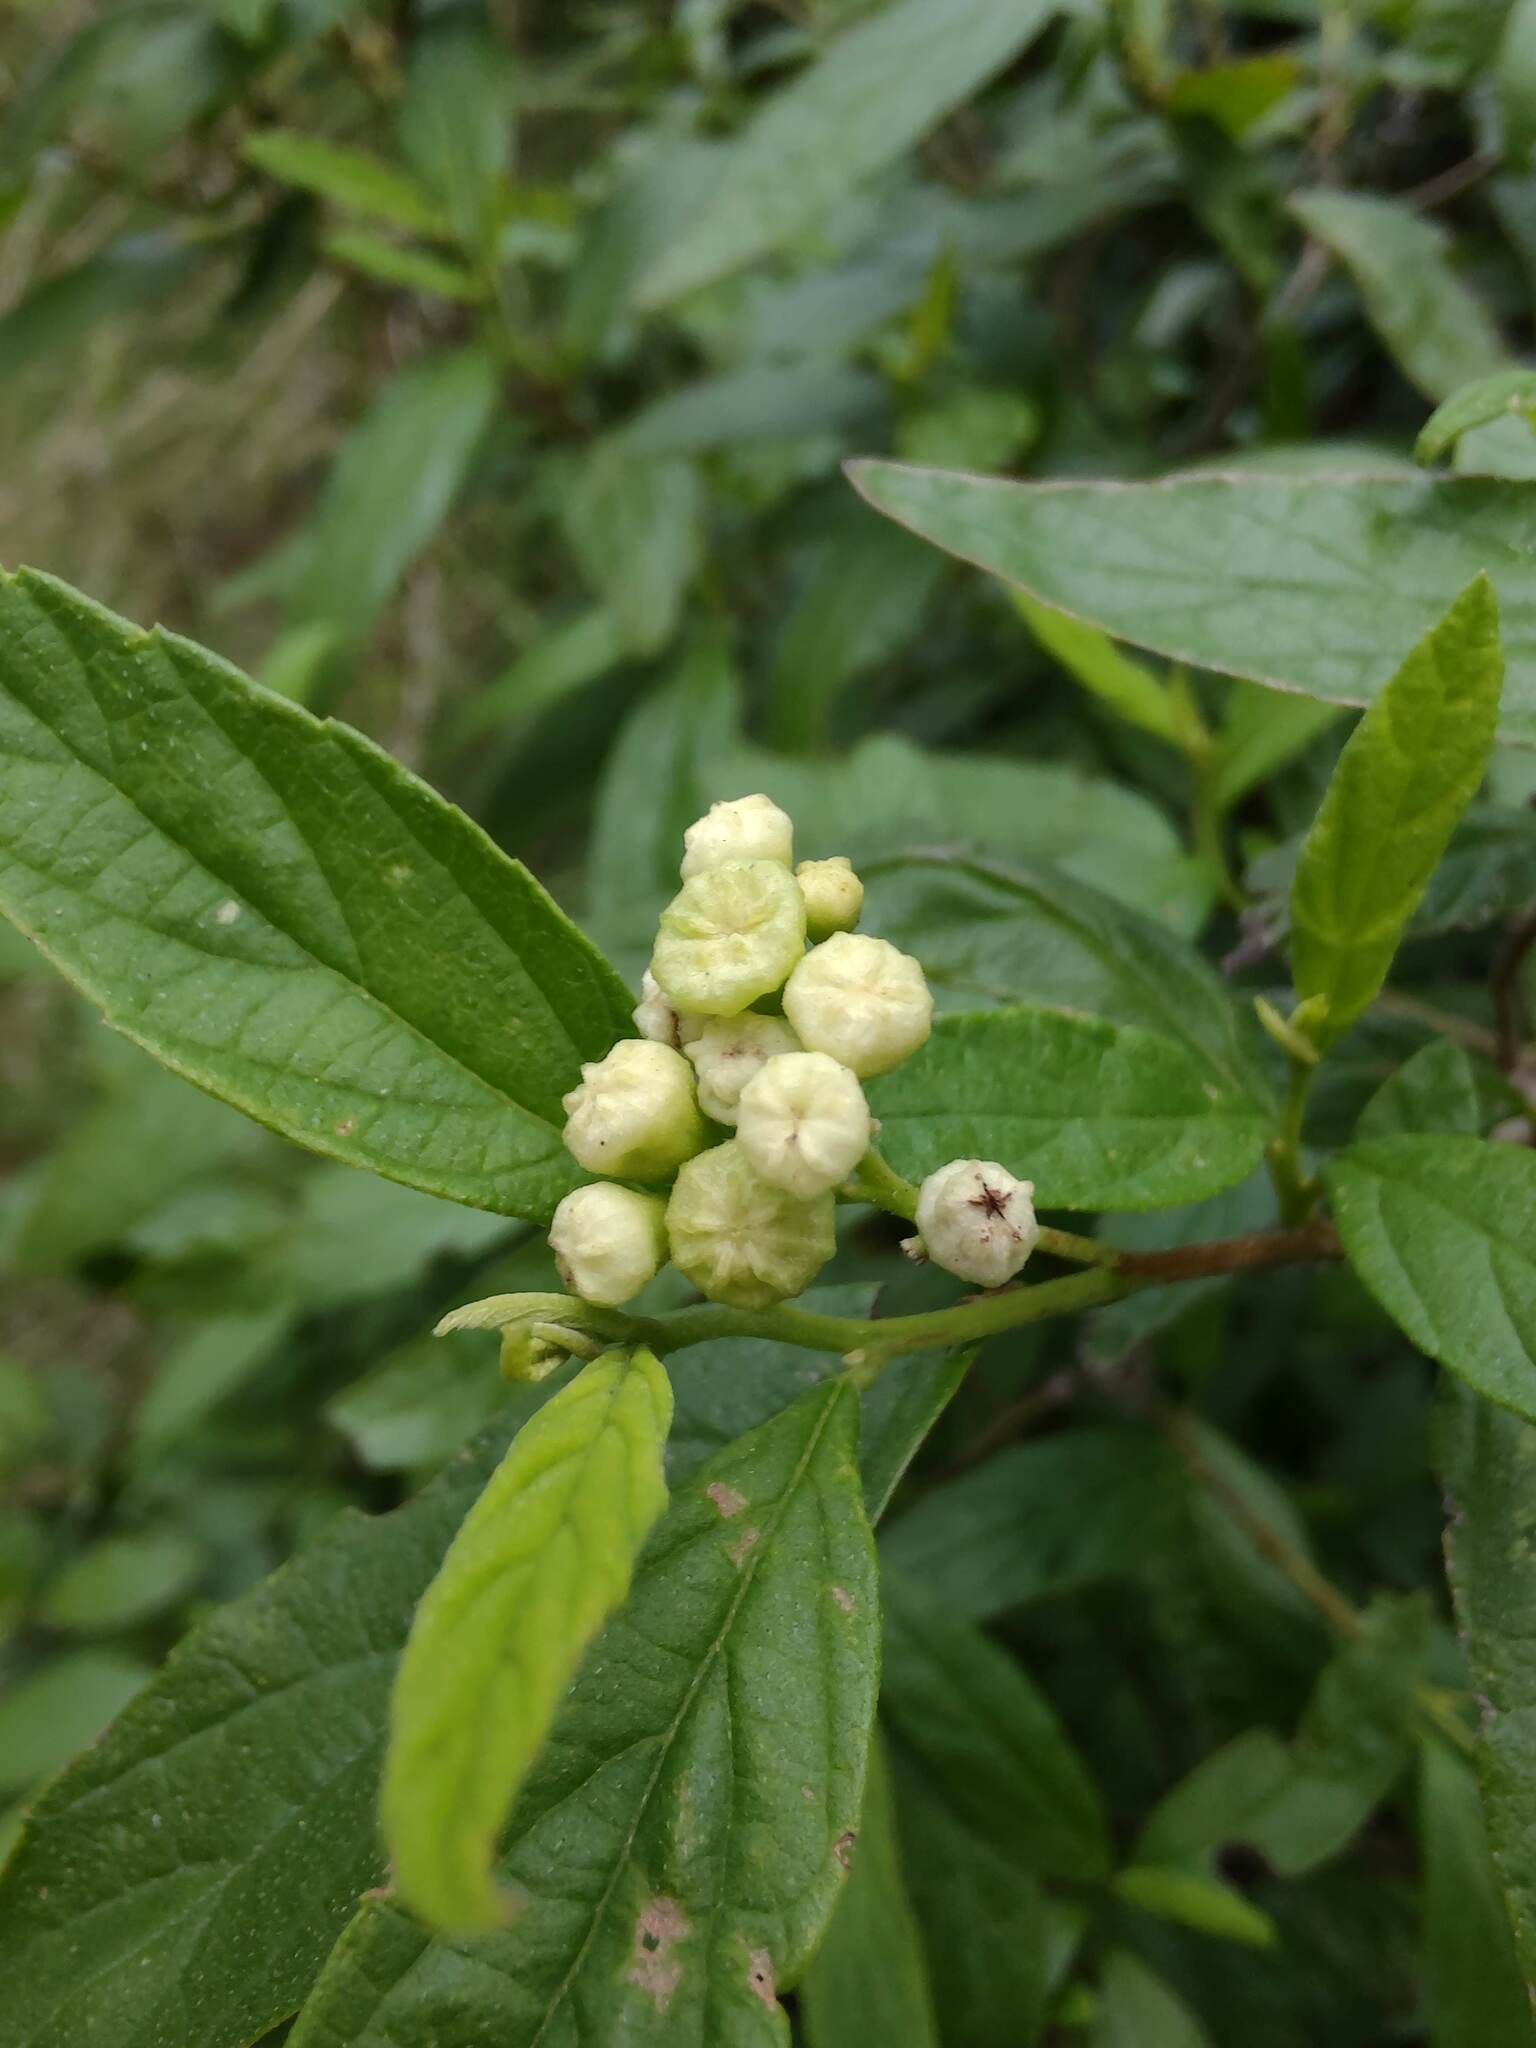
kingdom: Plantae
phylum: Tracheophyta
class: Magnoliopsida
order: Boraginales
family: Cordiaceae
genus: Varronia
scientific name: Varronia dichotoma
